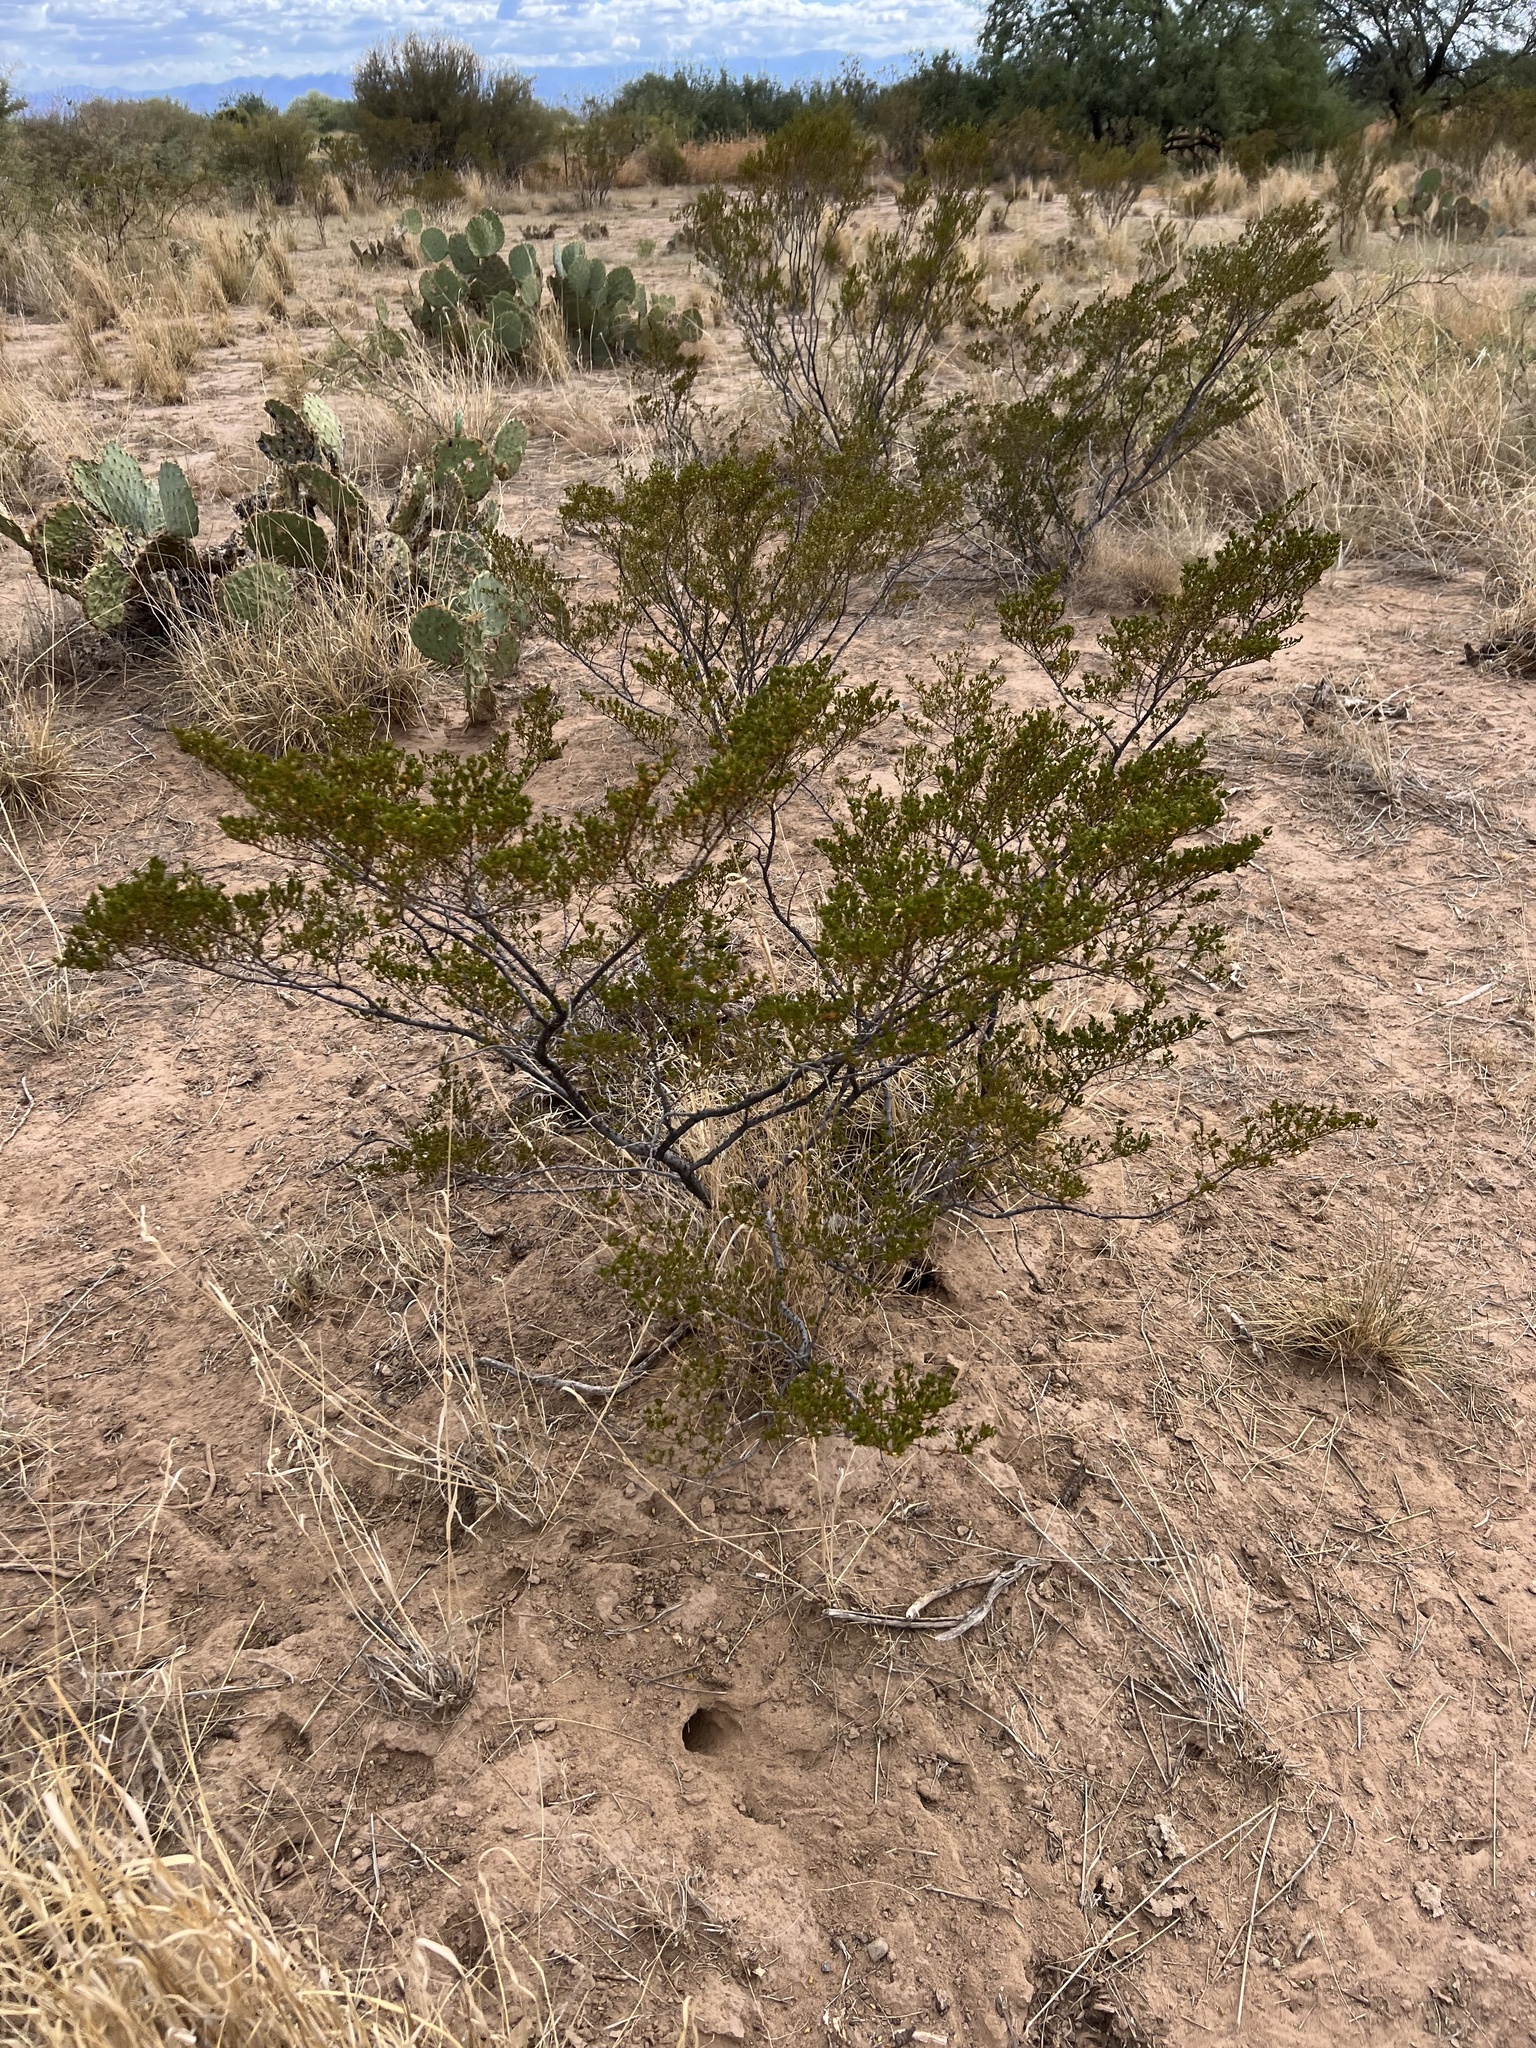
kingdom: Plantae
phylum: Tracheophyta
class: Magnoliopsida
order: Zygophyllales
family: Zygophyllaceae
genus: Larrea
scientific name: Larrea tridentata
